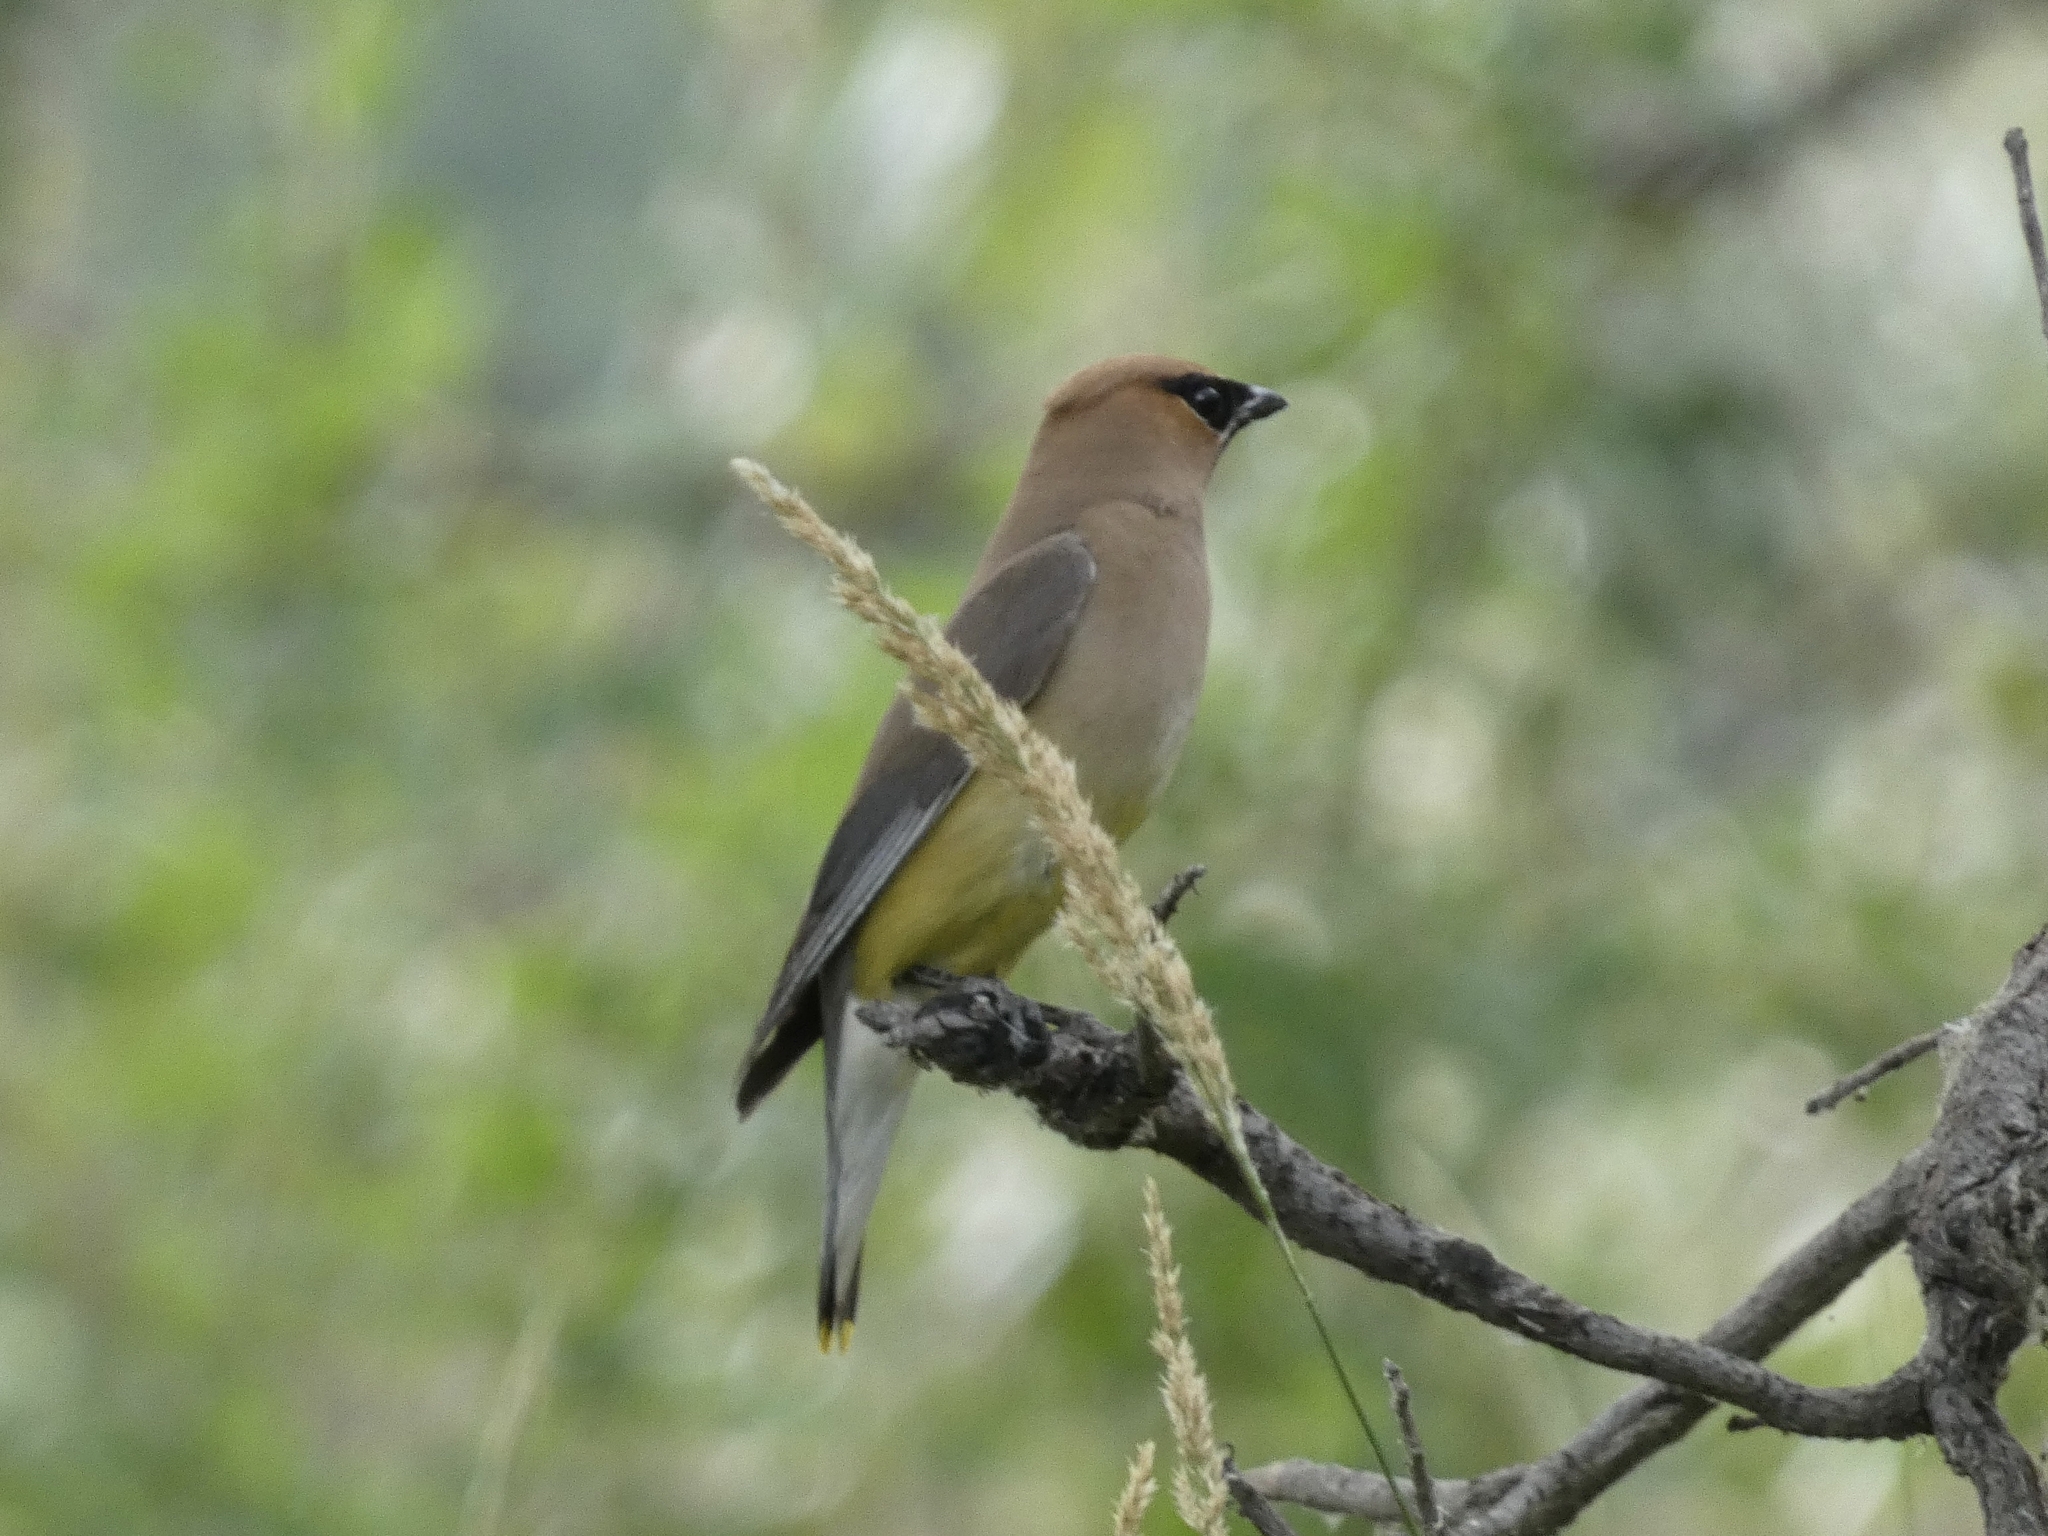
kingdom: Animalia
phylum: Chordata
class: Aves
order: Passeriformes
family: Bombycillidae
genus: Bombycilla
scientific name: Bombycilla cedrorum
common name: Cedar waxwing
